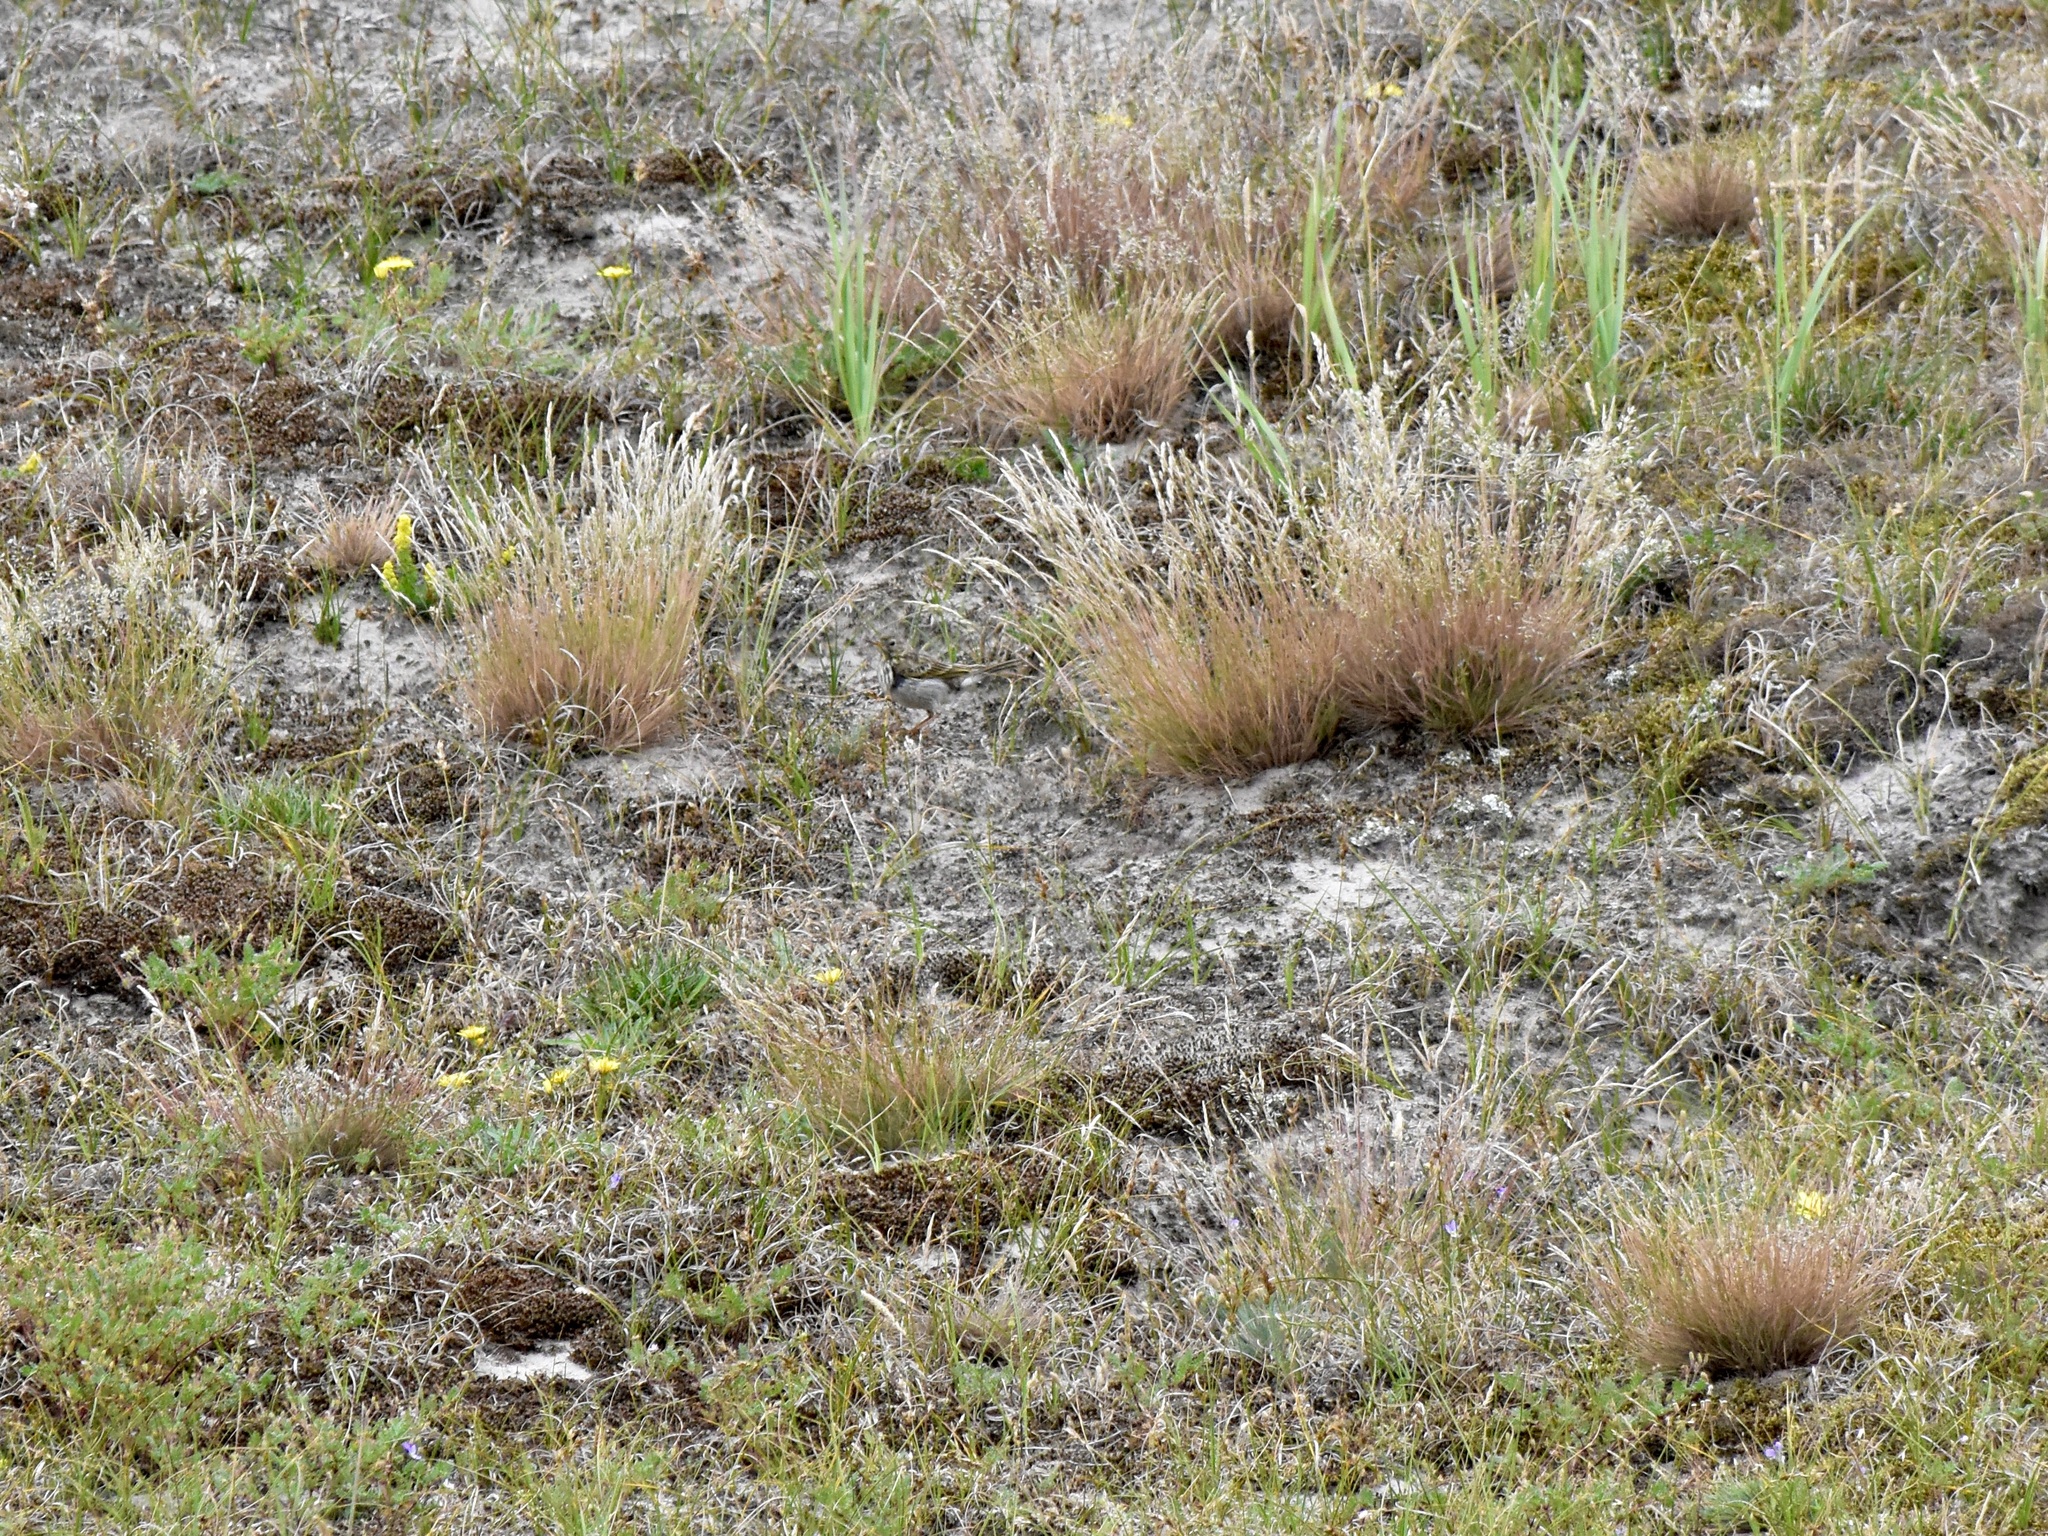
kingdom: Animalia
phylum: Chordata
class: Aves
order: Passeriformes
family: Motacillidae
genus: Anthus
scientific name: Anthus pratensis
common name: Meadow pipit
